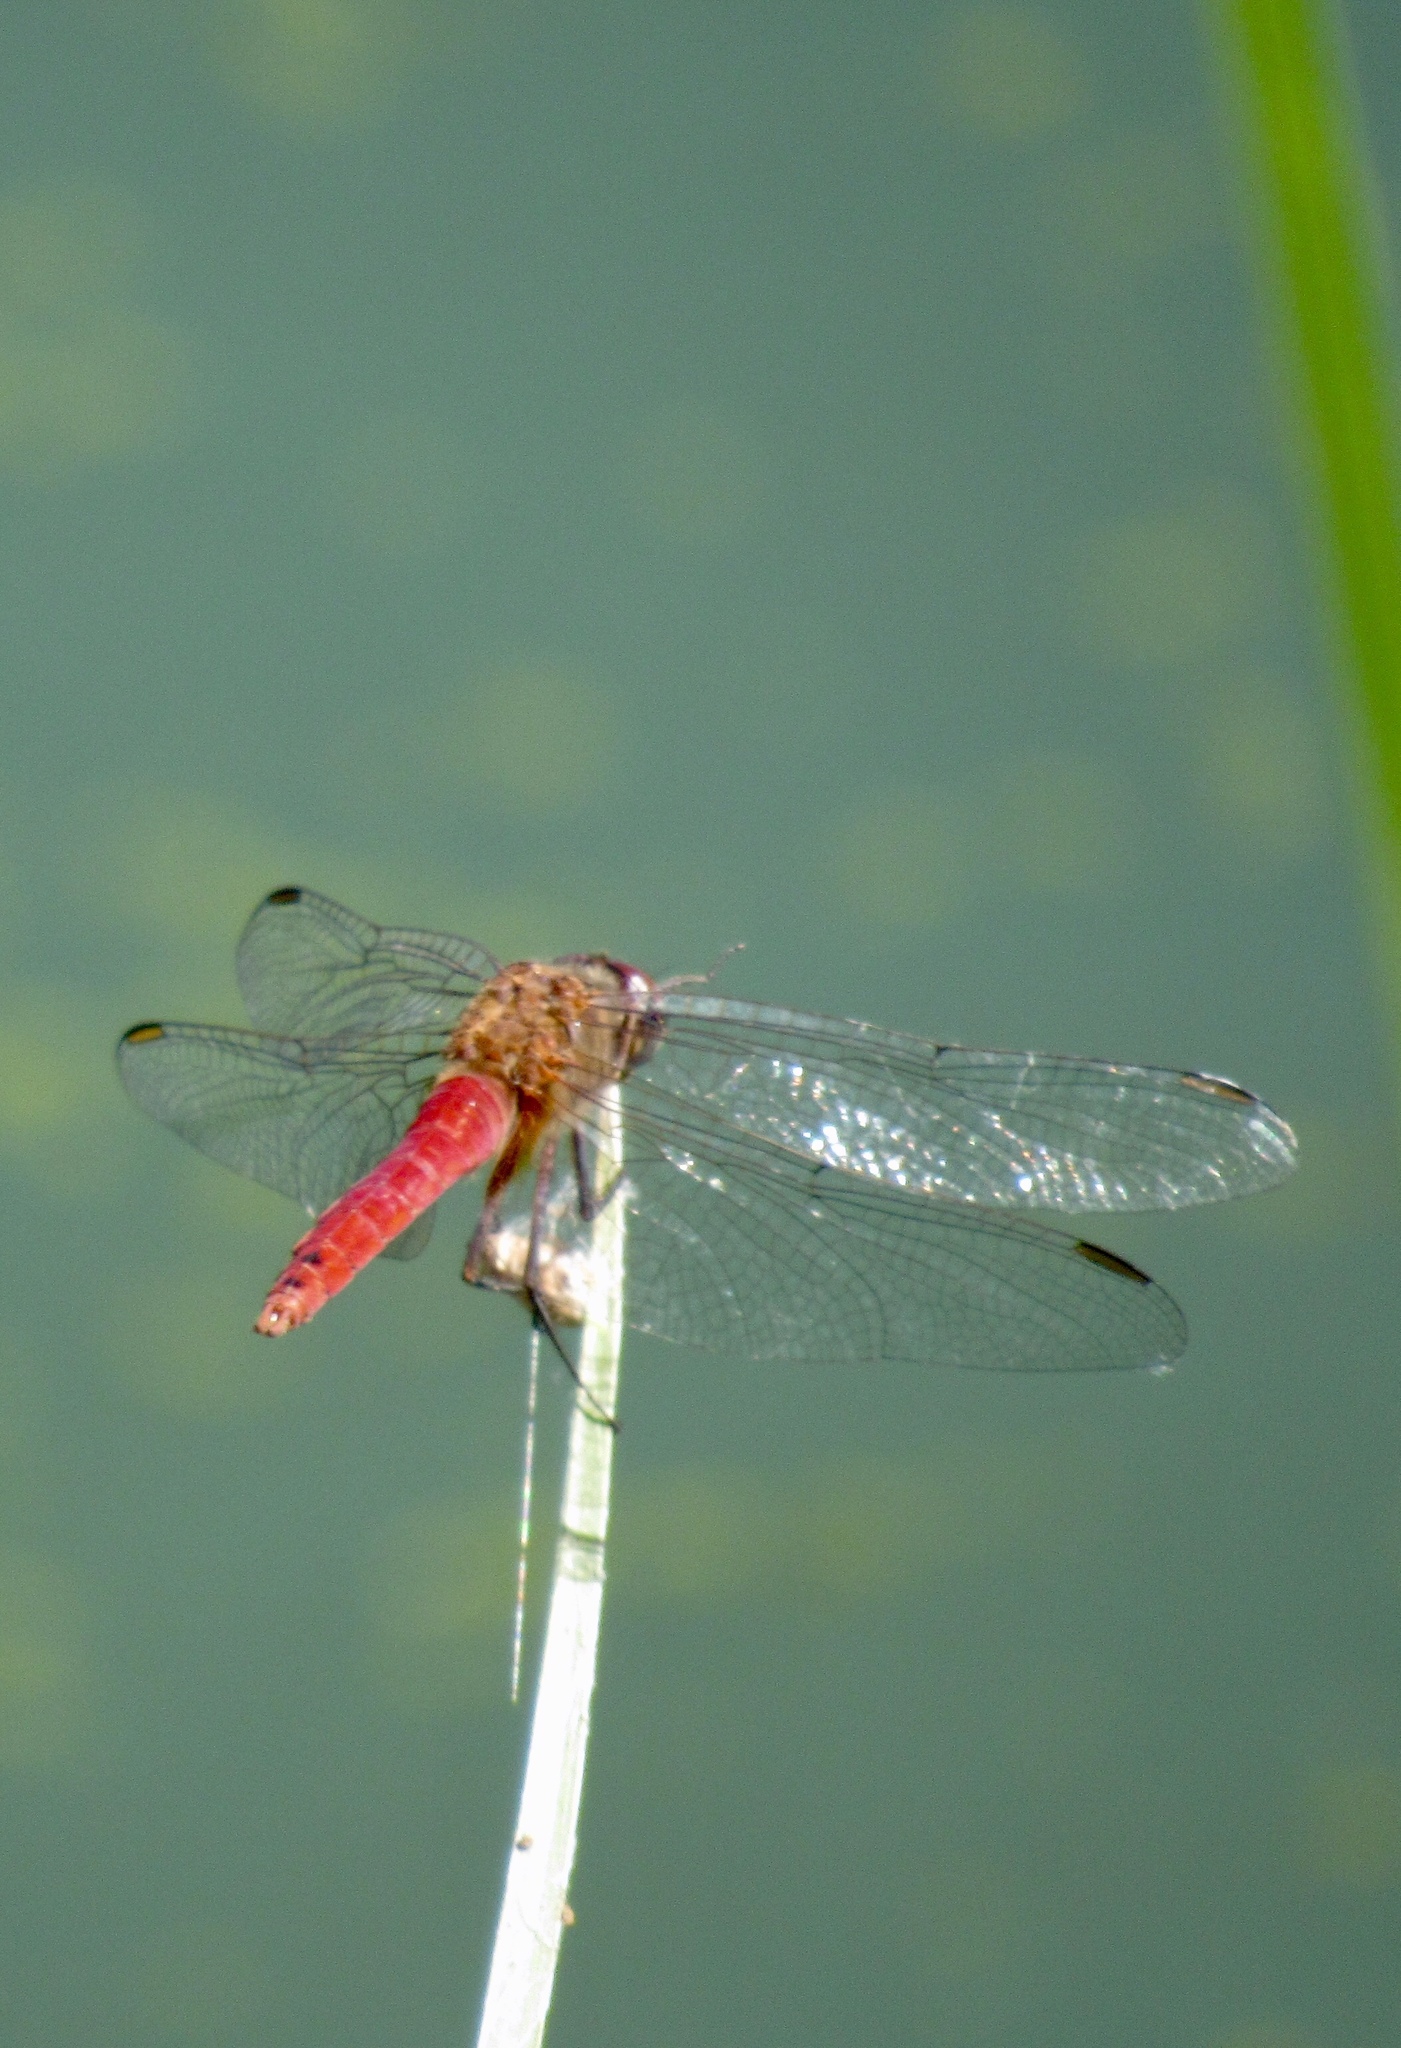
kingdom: Animalia
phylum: Arthropoda
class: Insecta
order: Odonata
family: Libellulidae
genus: Brachymesia
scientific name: Brachymesia furcata
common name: Red-taled pennant
